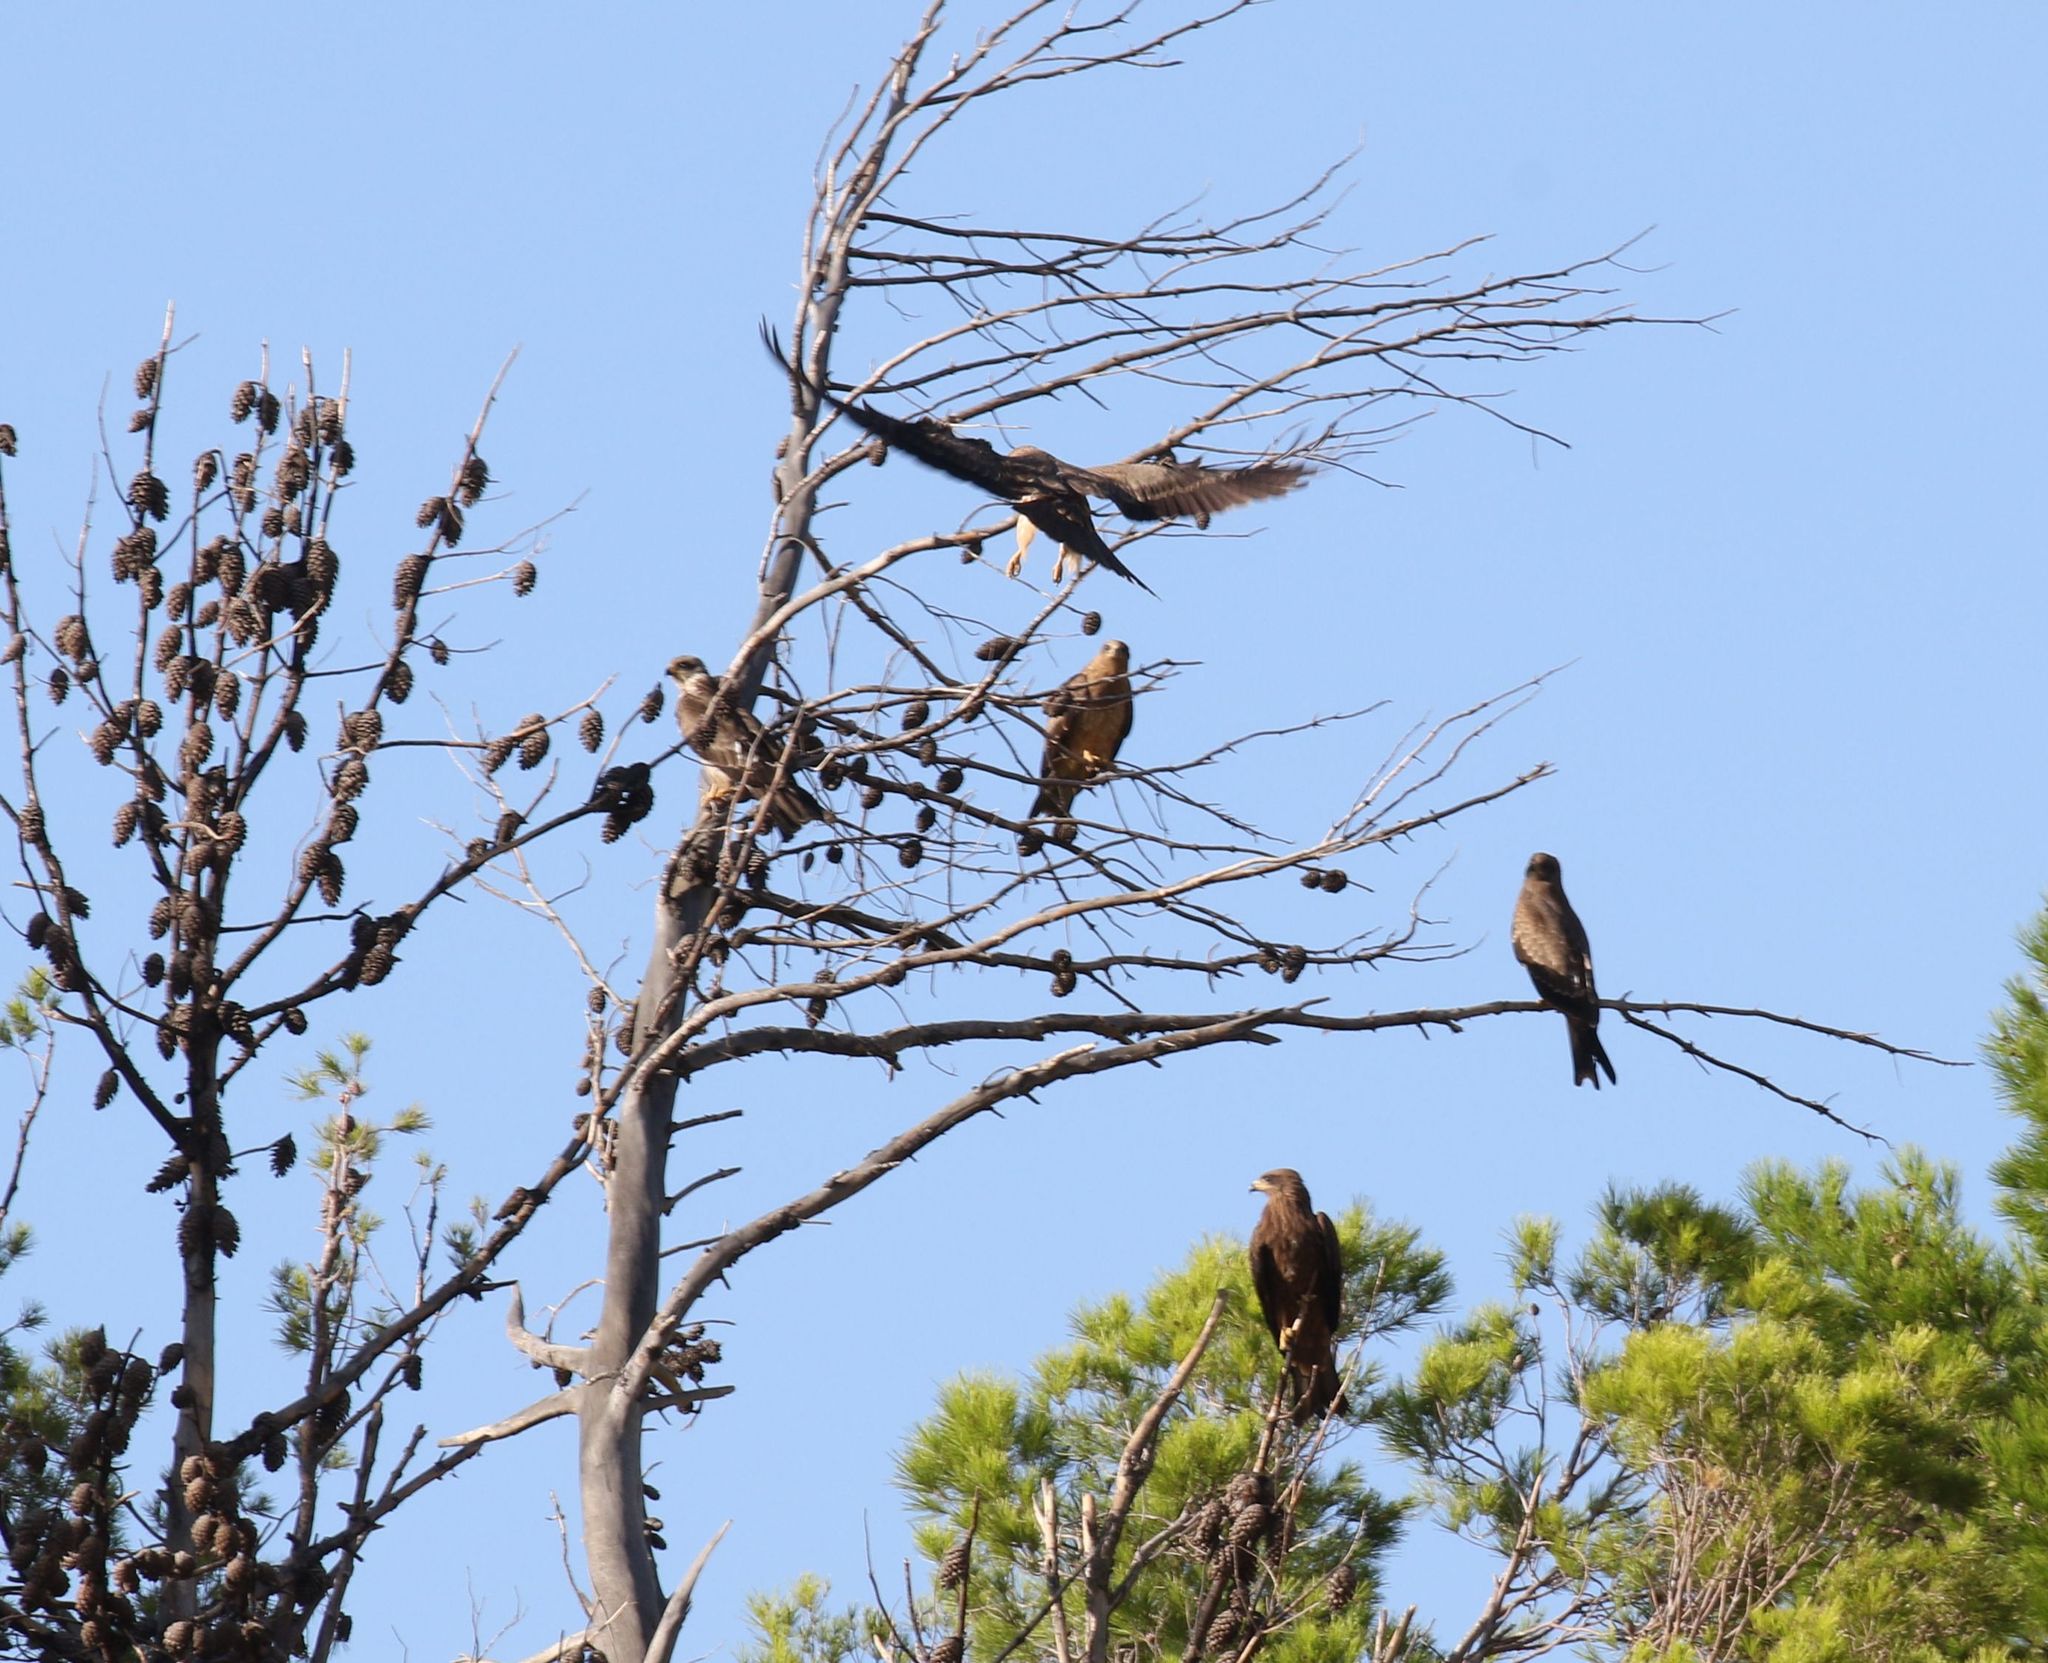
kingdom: Animalia
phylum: Chordata
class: Aves
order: Accipitriformes
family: Accipitridae
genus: Milvus
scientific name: Milvus migrans
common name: Black kite
